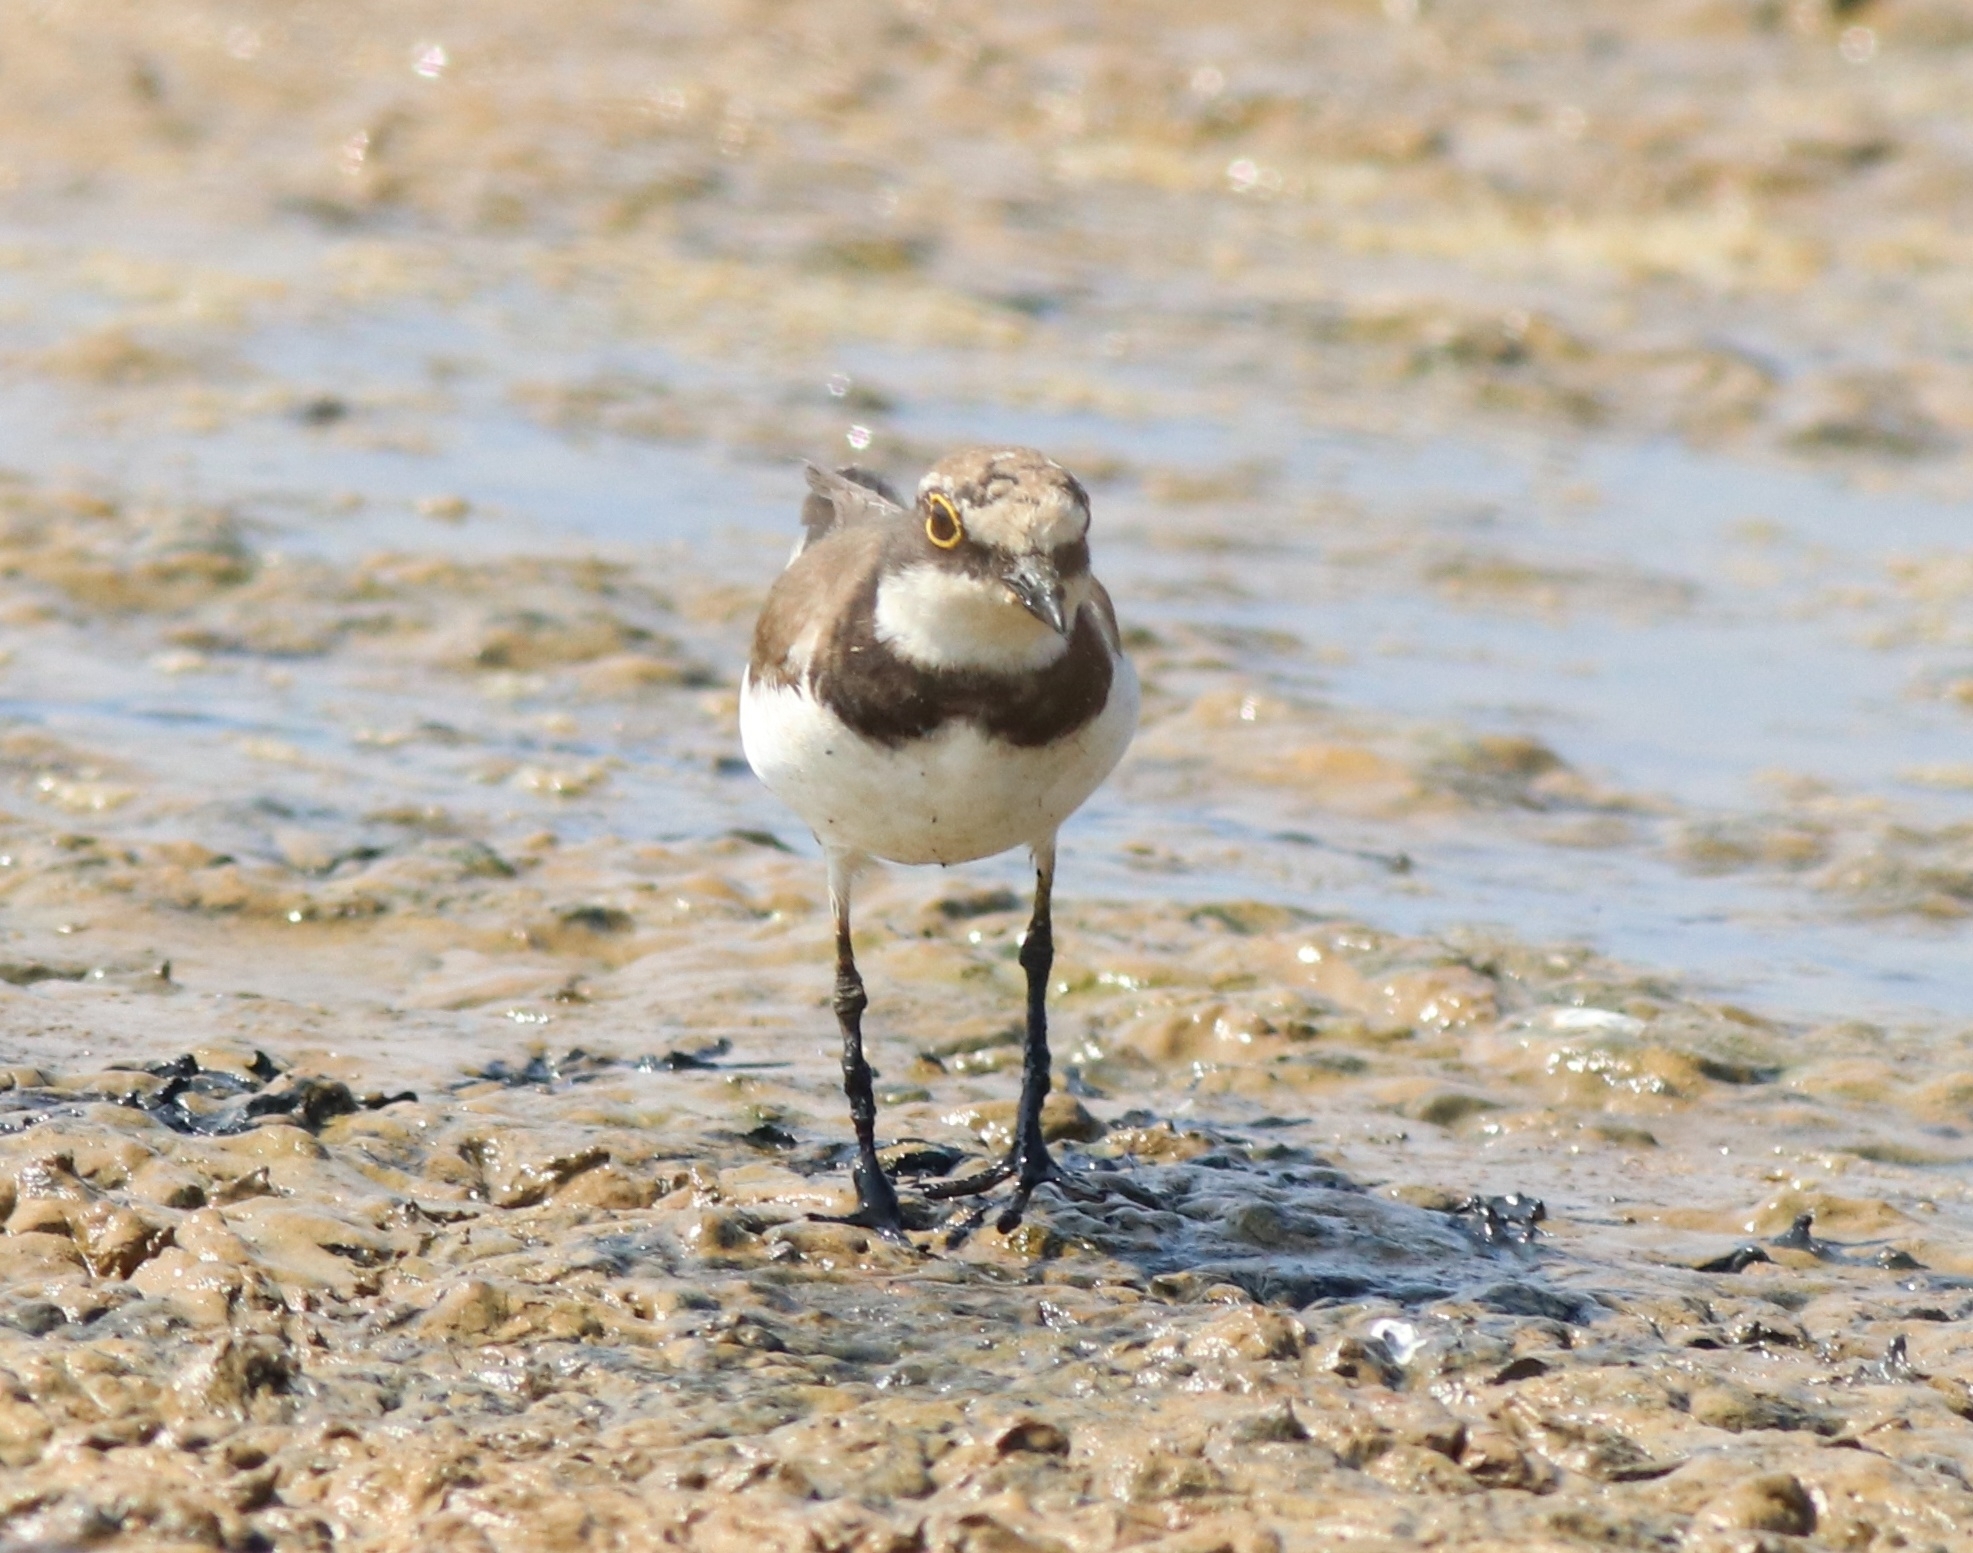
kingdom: Animalia
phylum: Chordata
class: Aves
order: Charadriiformes
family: Charadriidae
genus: Charadrius
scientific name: Charadrius dubius
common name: Little ringed plover
